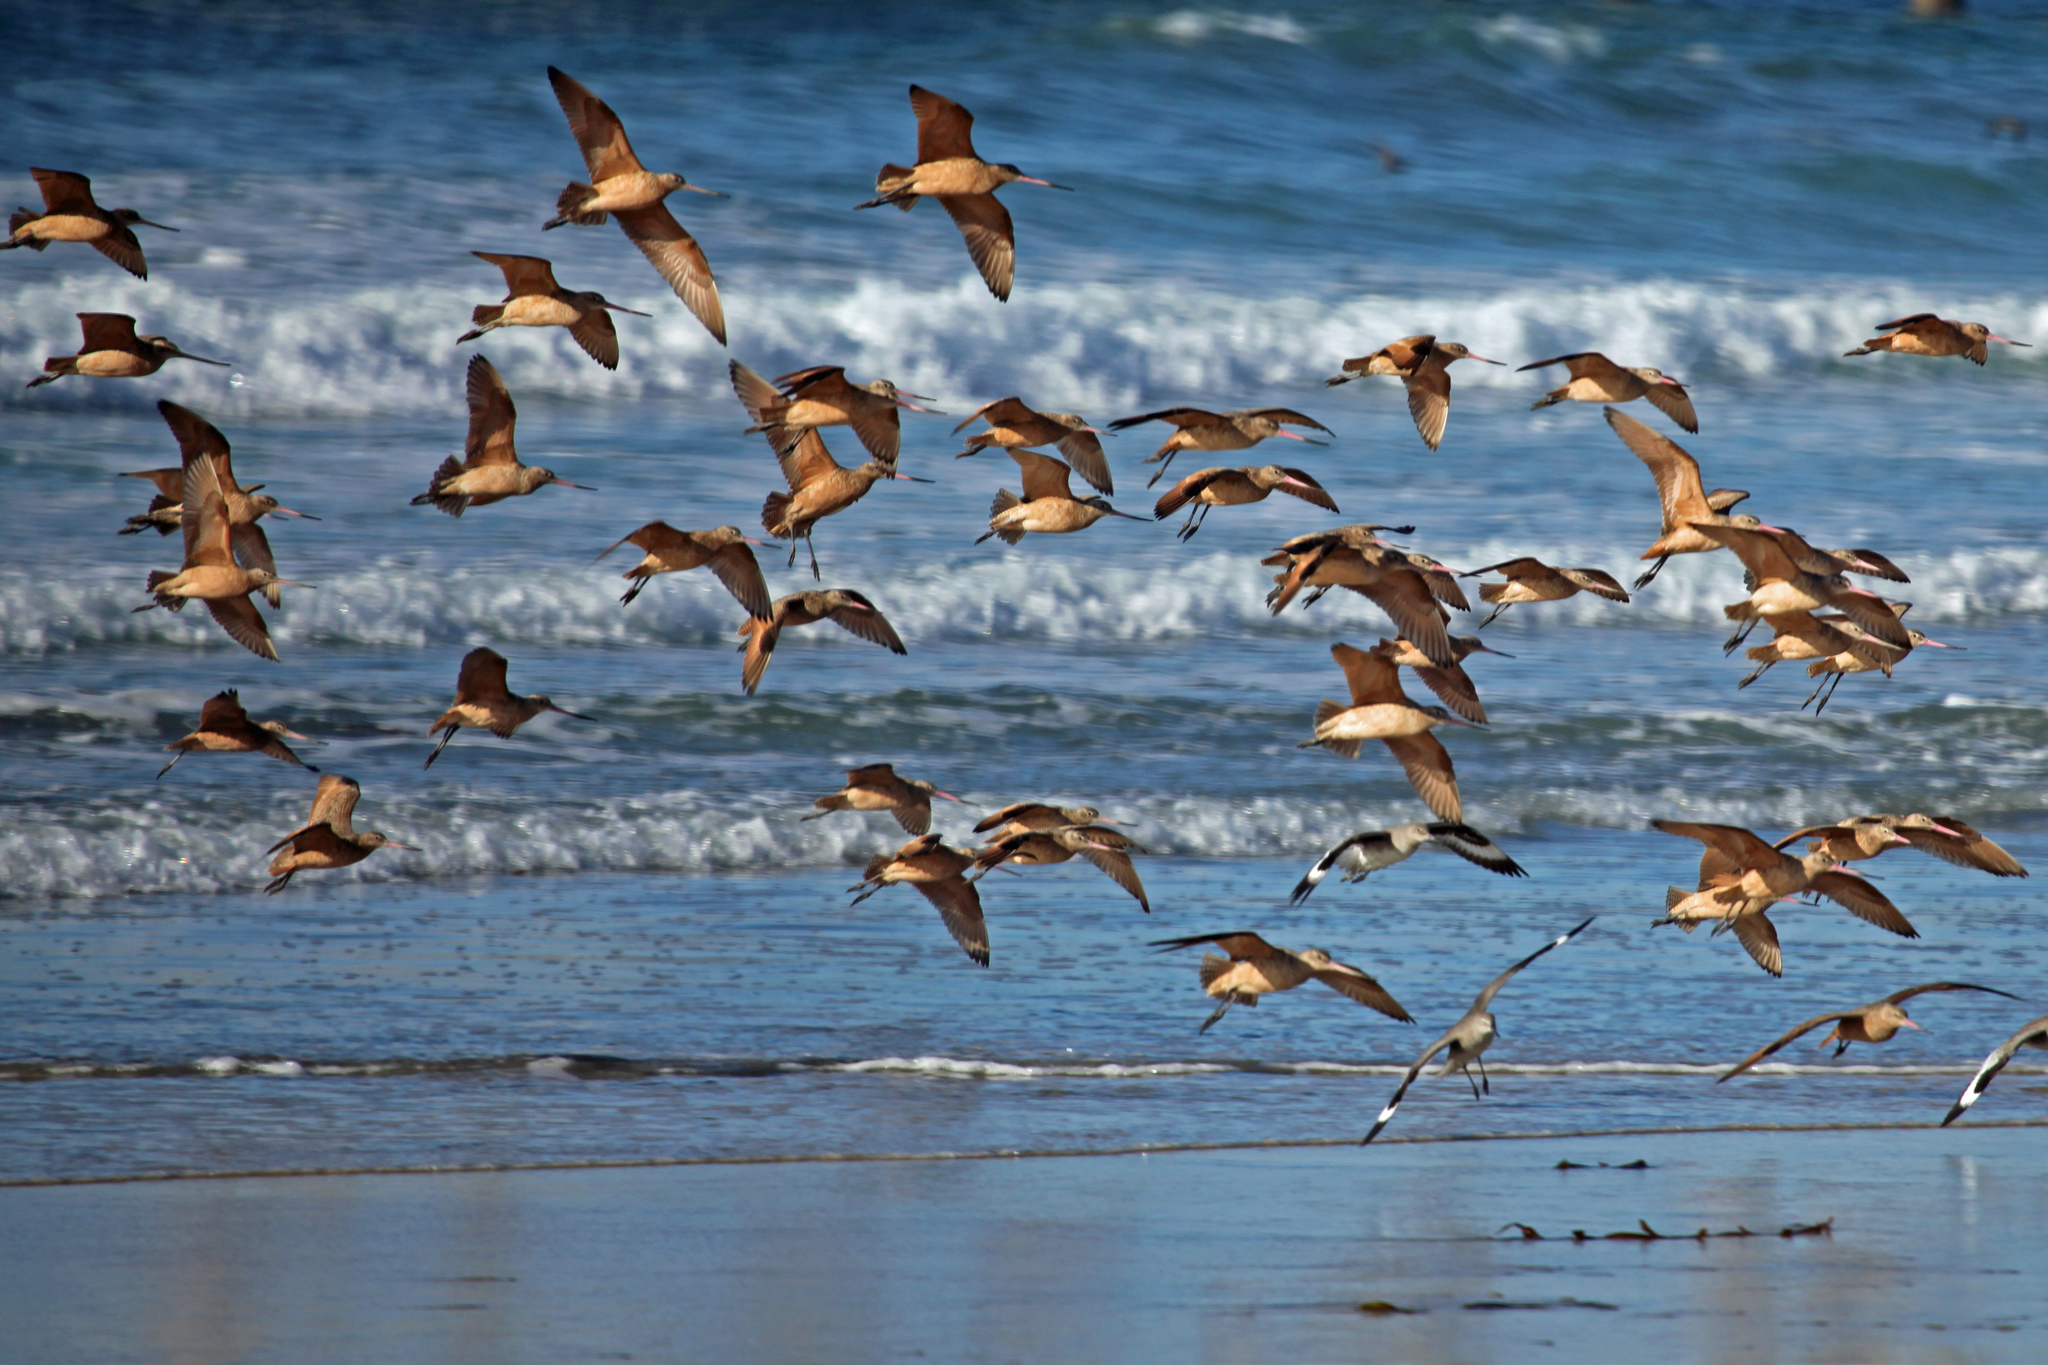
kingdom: Animalia
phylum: Chordata
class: Aves
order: Charadriiformes
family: Scolopacidae
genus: Limosa
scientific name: Limosa fedoa
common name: Marbled godwit
